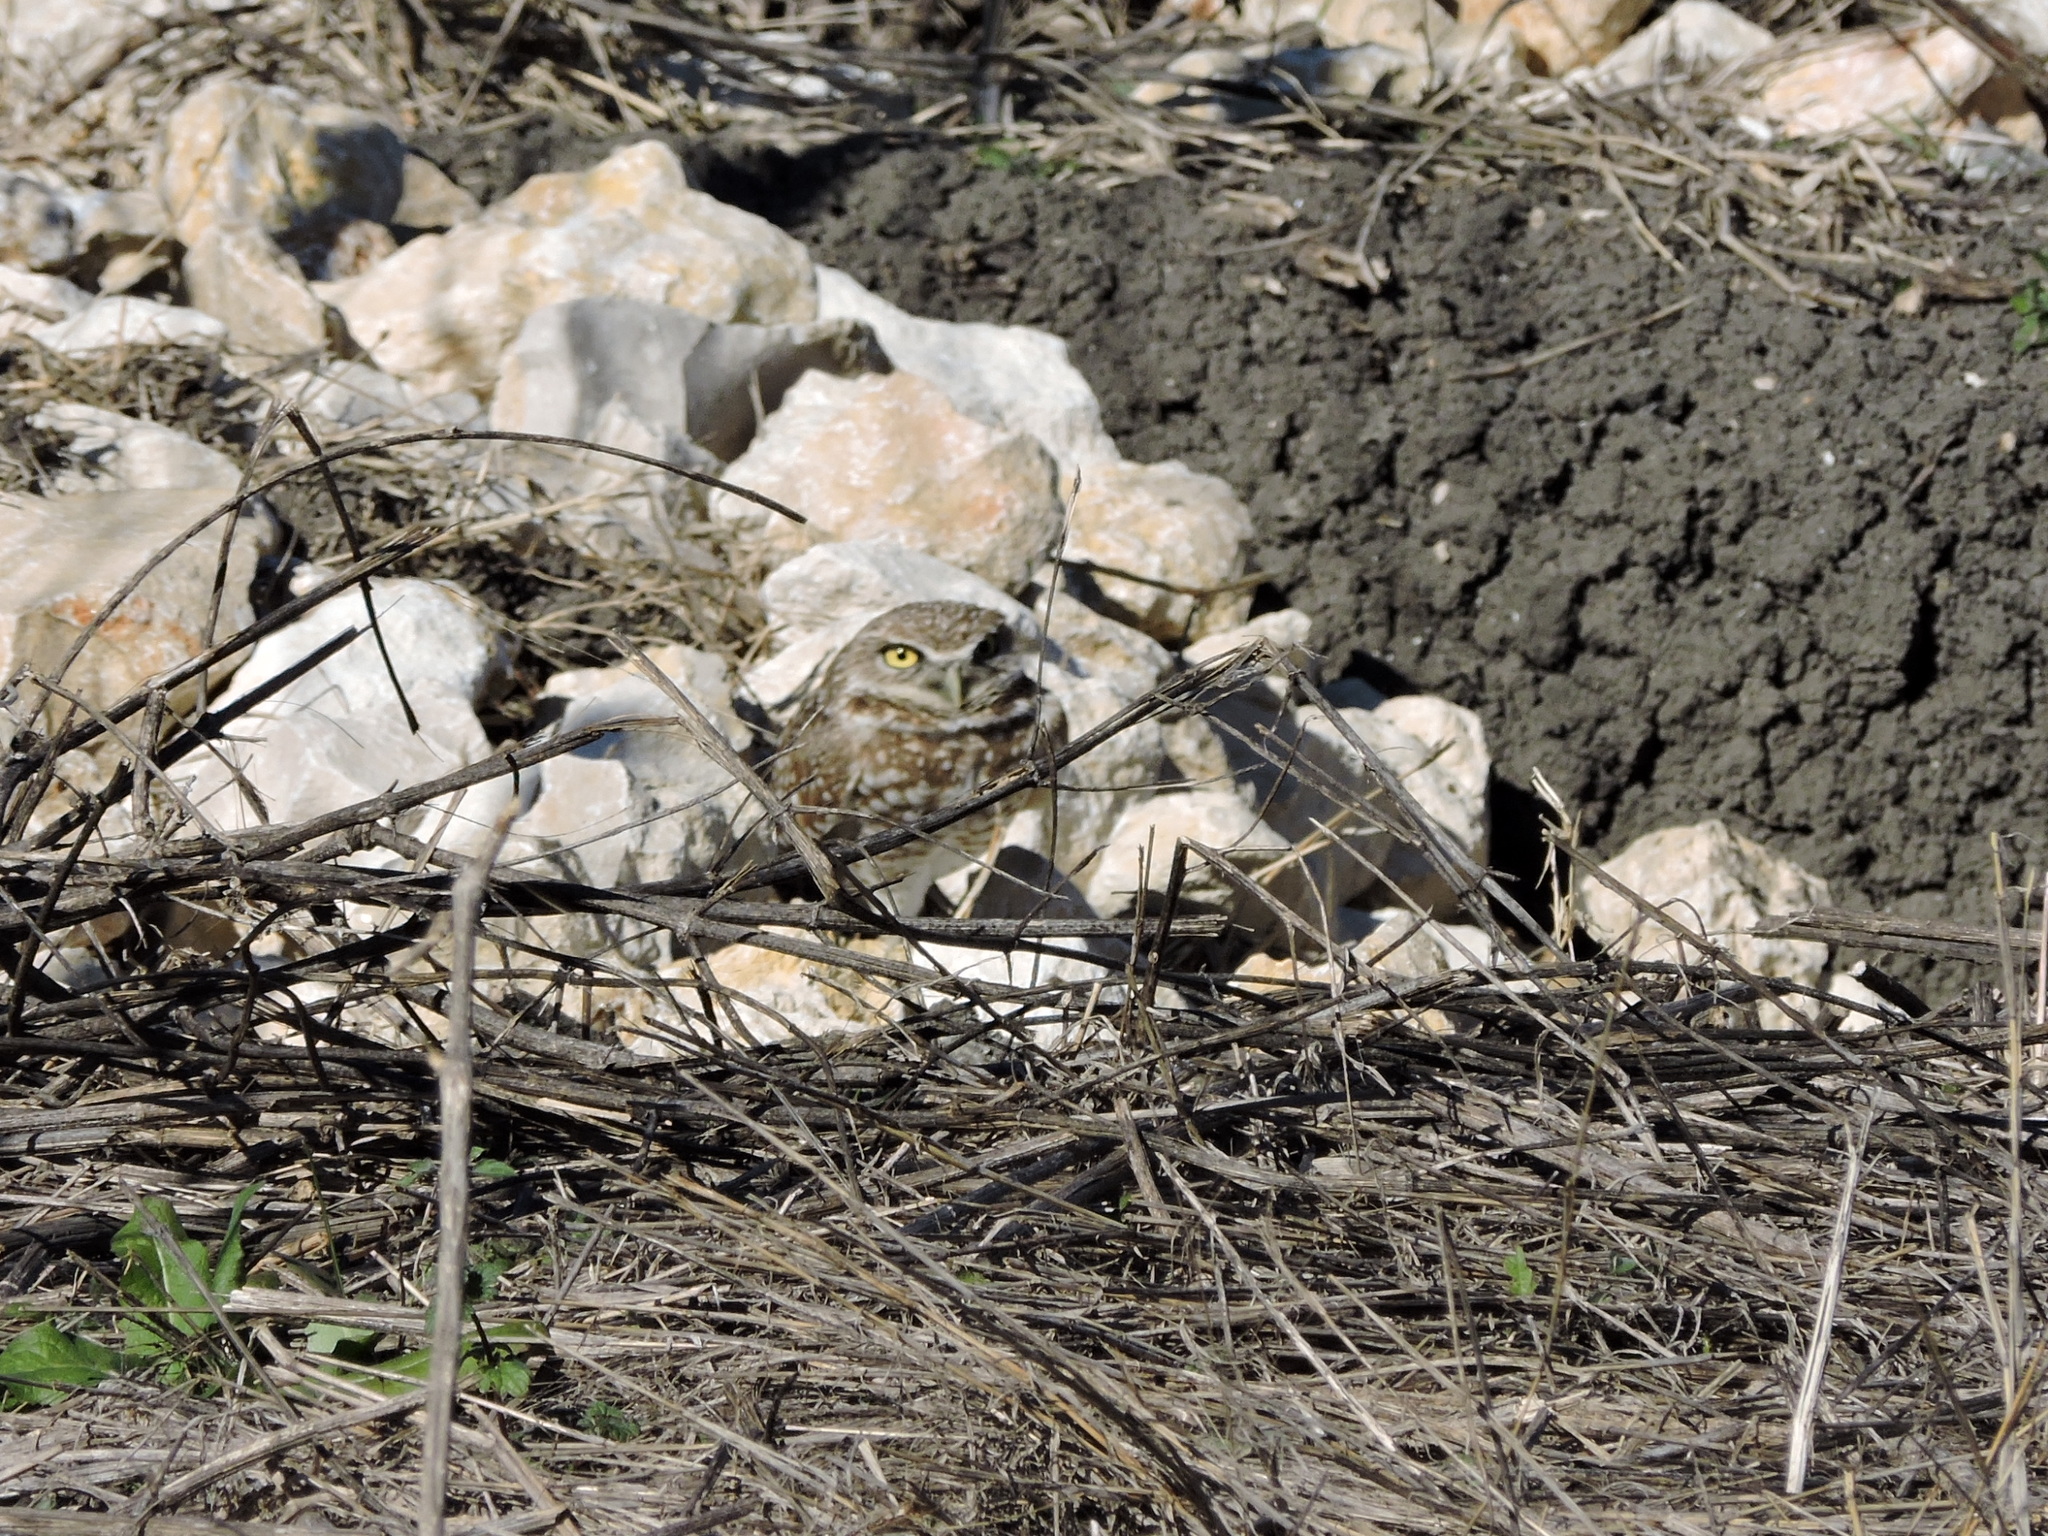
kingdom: Animalia
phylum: Chordata
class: Aves
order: Strigiformes
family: Strigidae
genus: Athene
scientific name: Athene cunicularia
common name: Burrowing owl
